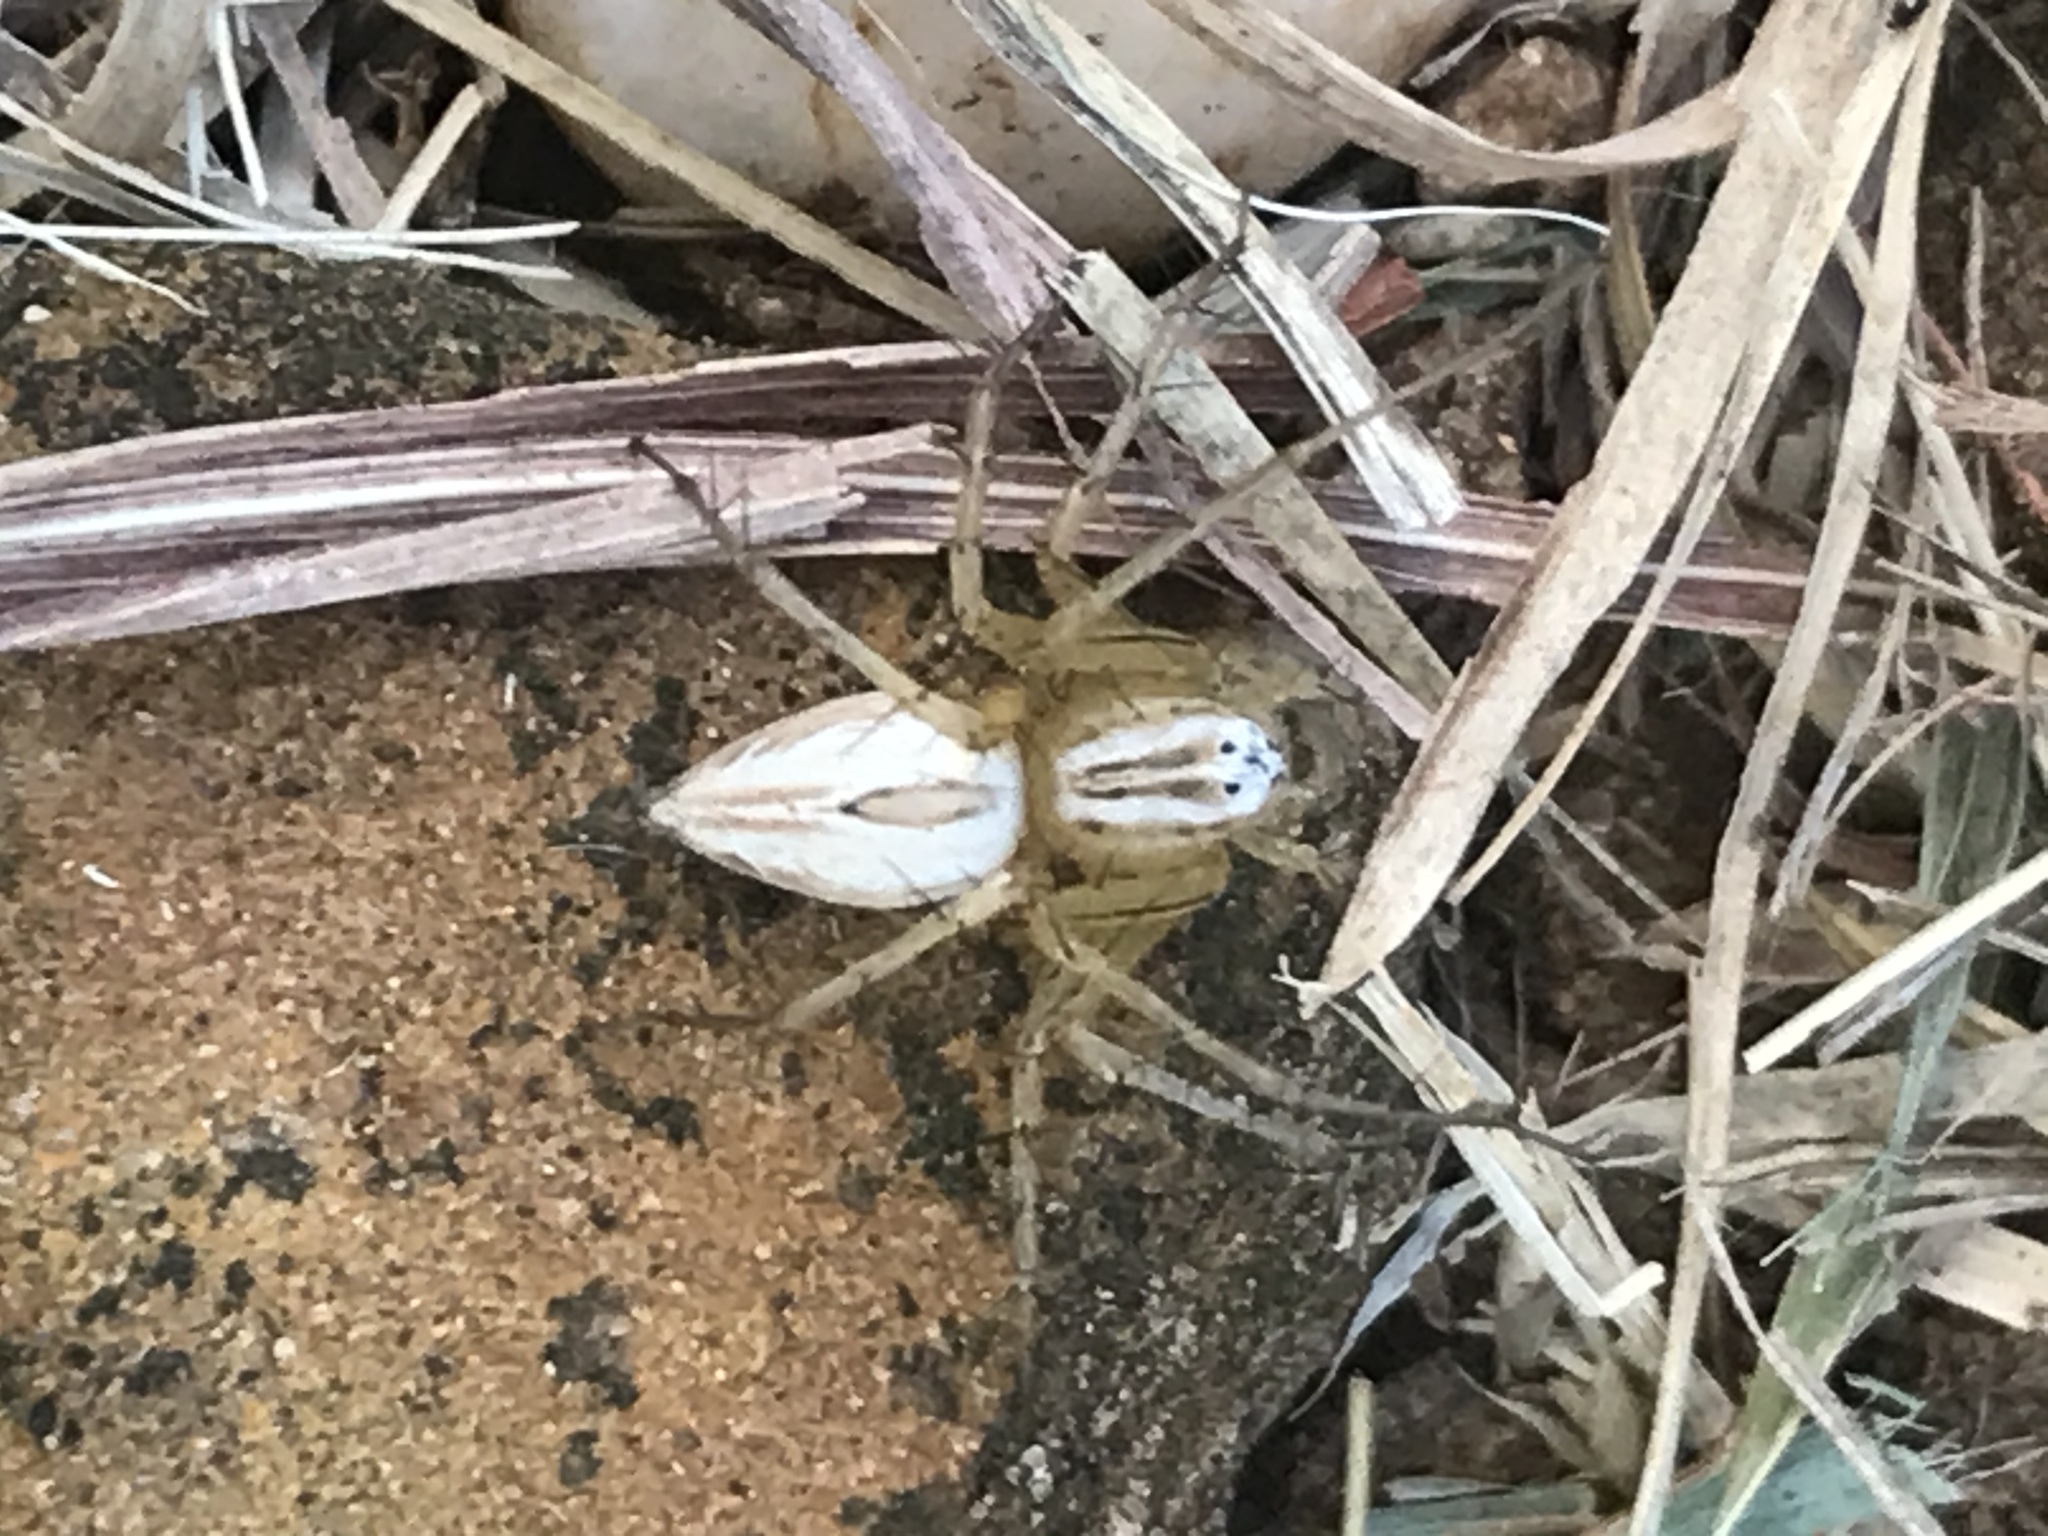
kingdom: Animalia
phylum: Arthropoda
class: Arachnida
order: Araneae
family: Oxyopidae
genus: Oxyopes
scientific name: Oxyopes salticus
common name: Lynx spiders
